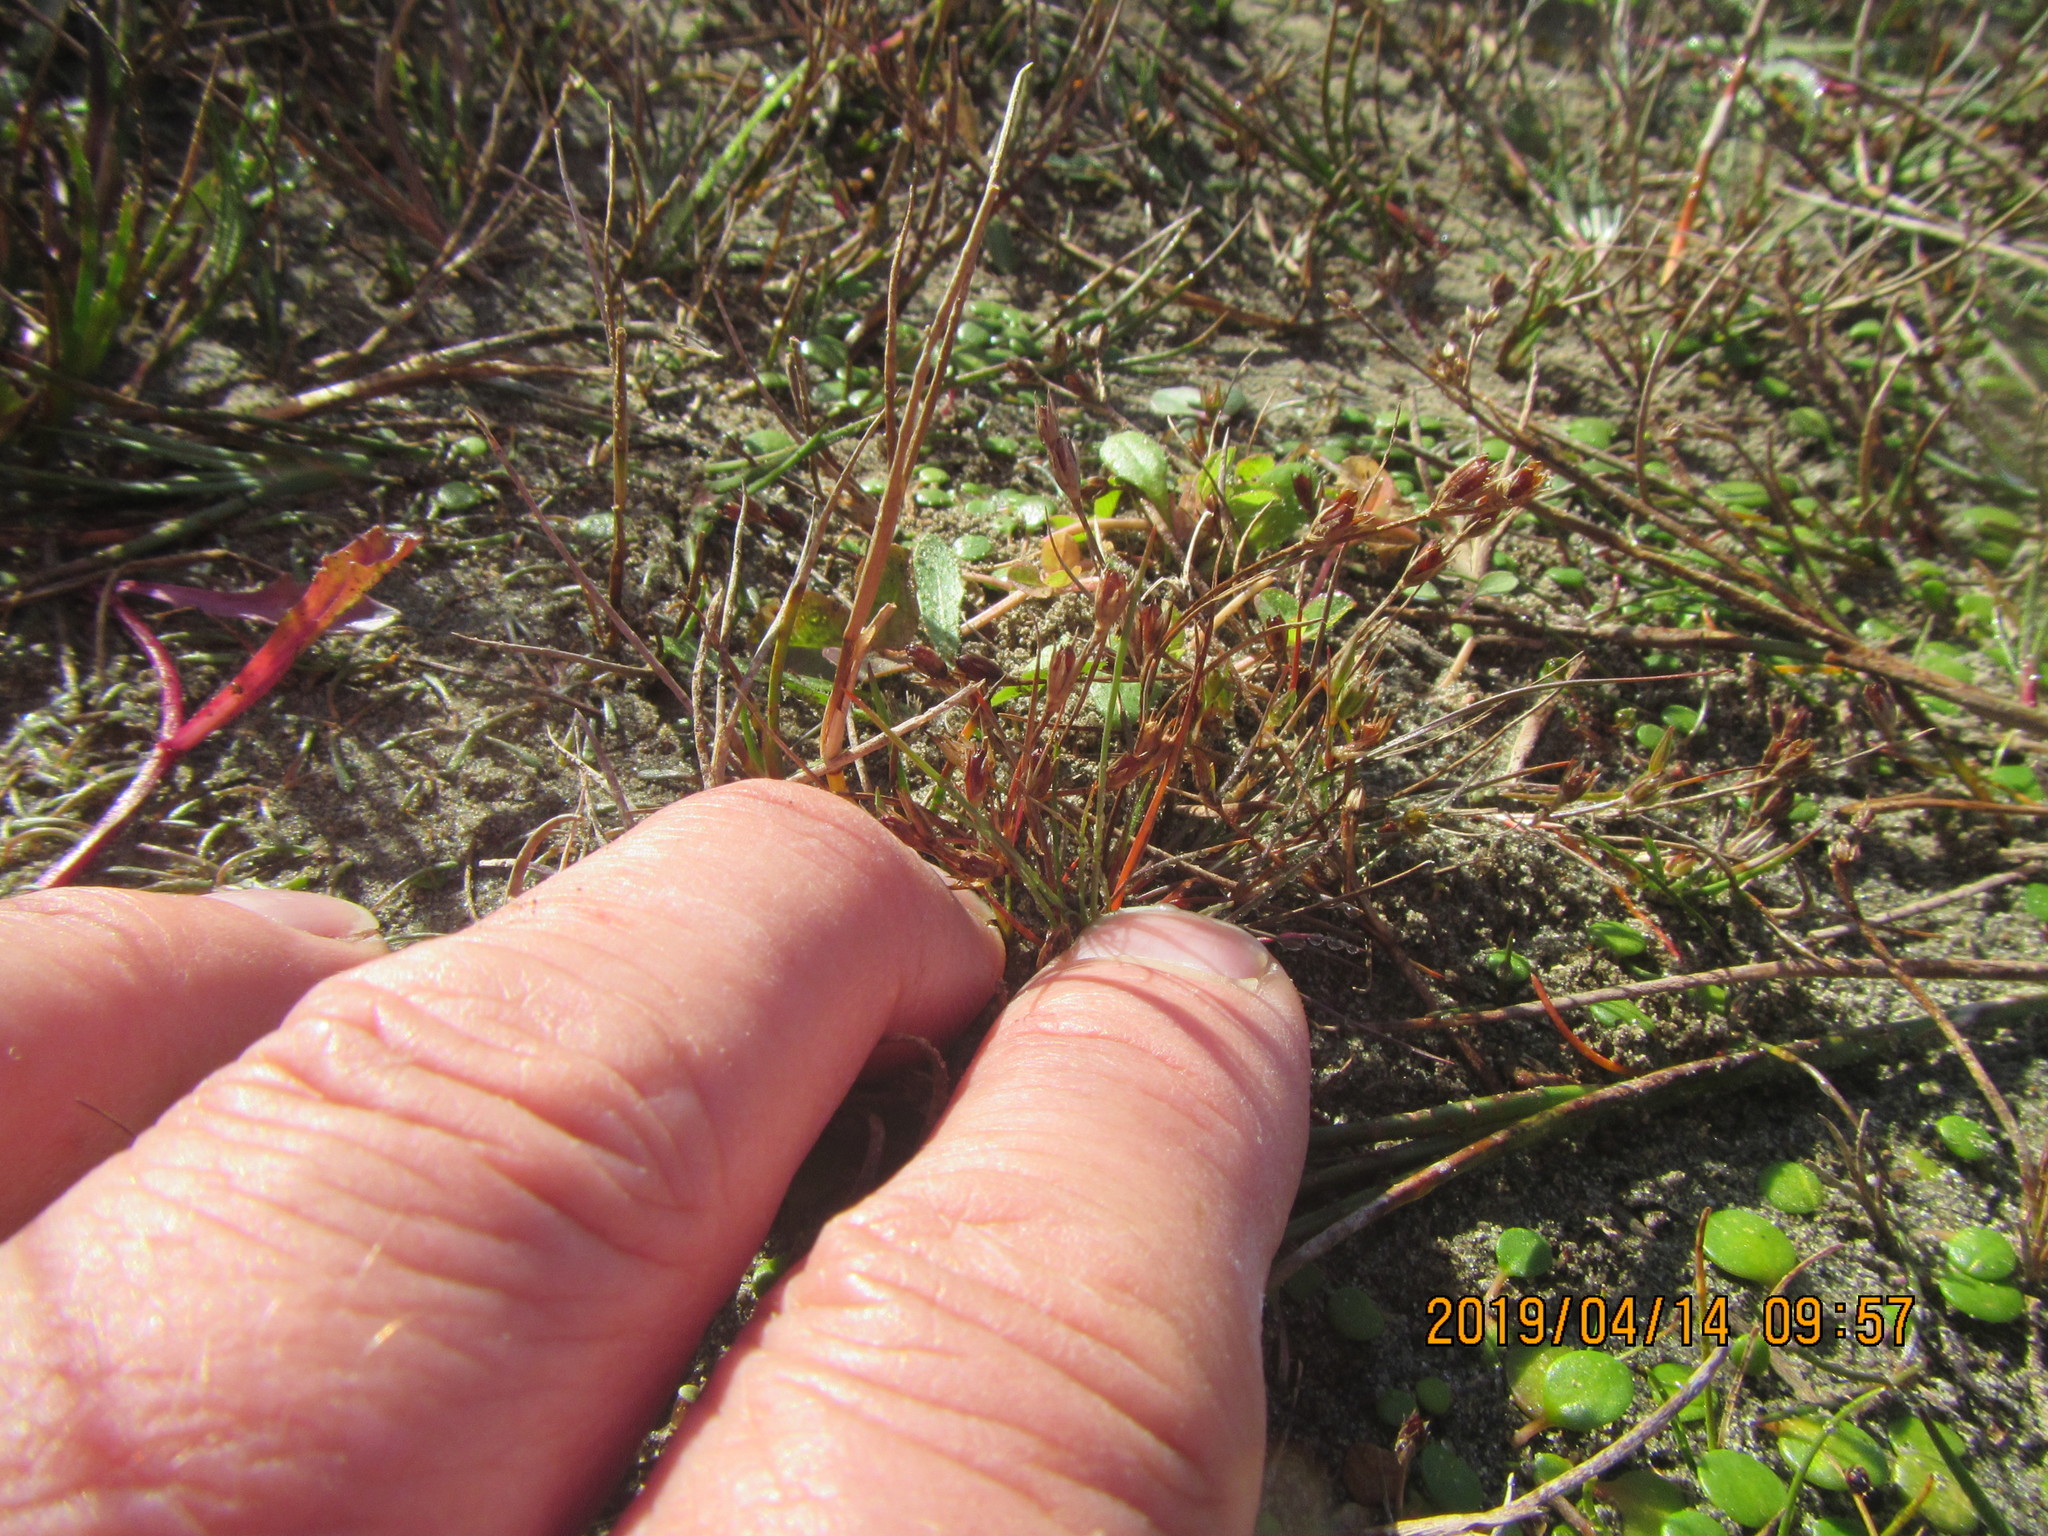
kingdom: Plantae
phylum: Tracheophyta
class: Liliopsida
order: Poales
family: Juncaceae
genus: Juncus
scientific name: Juncus bufonius
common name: Toad rush
